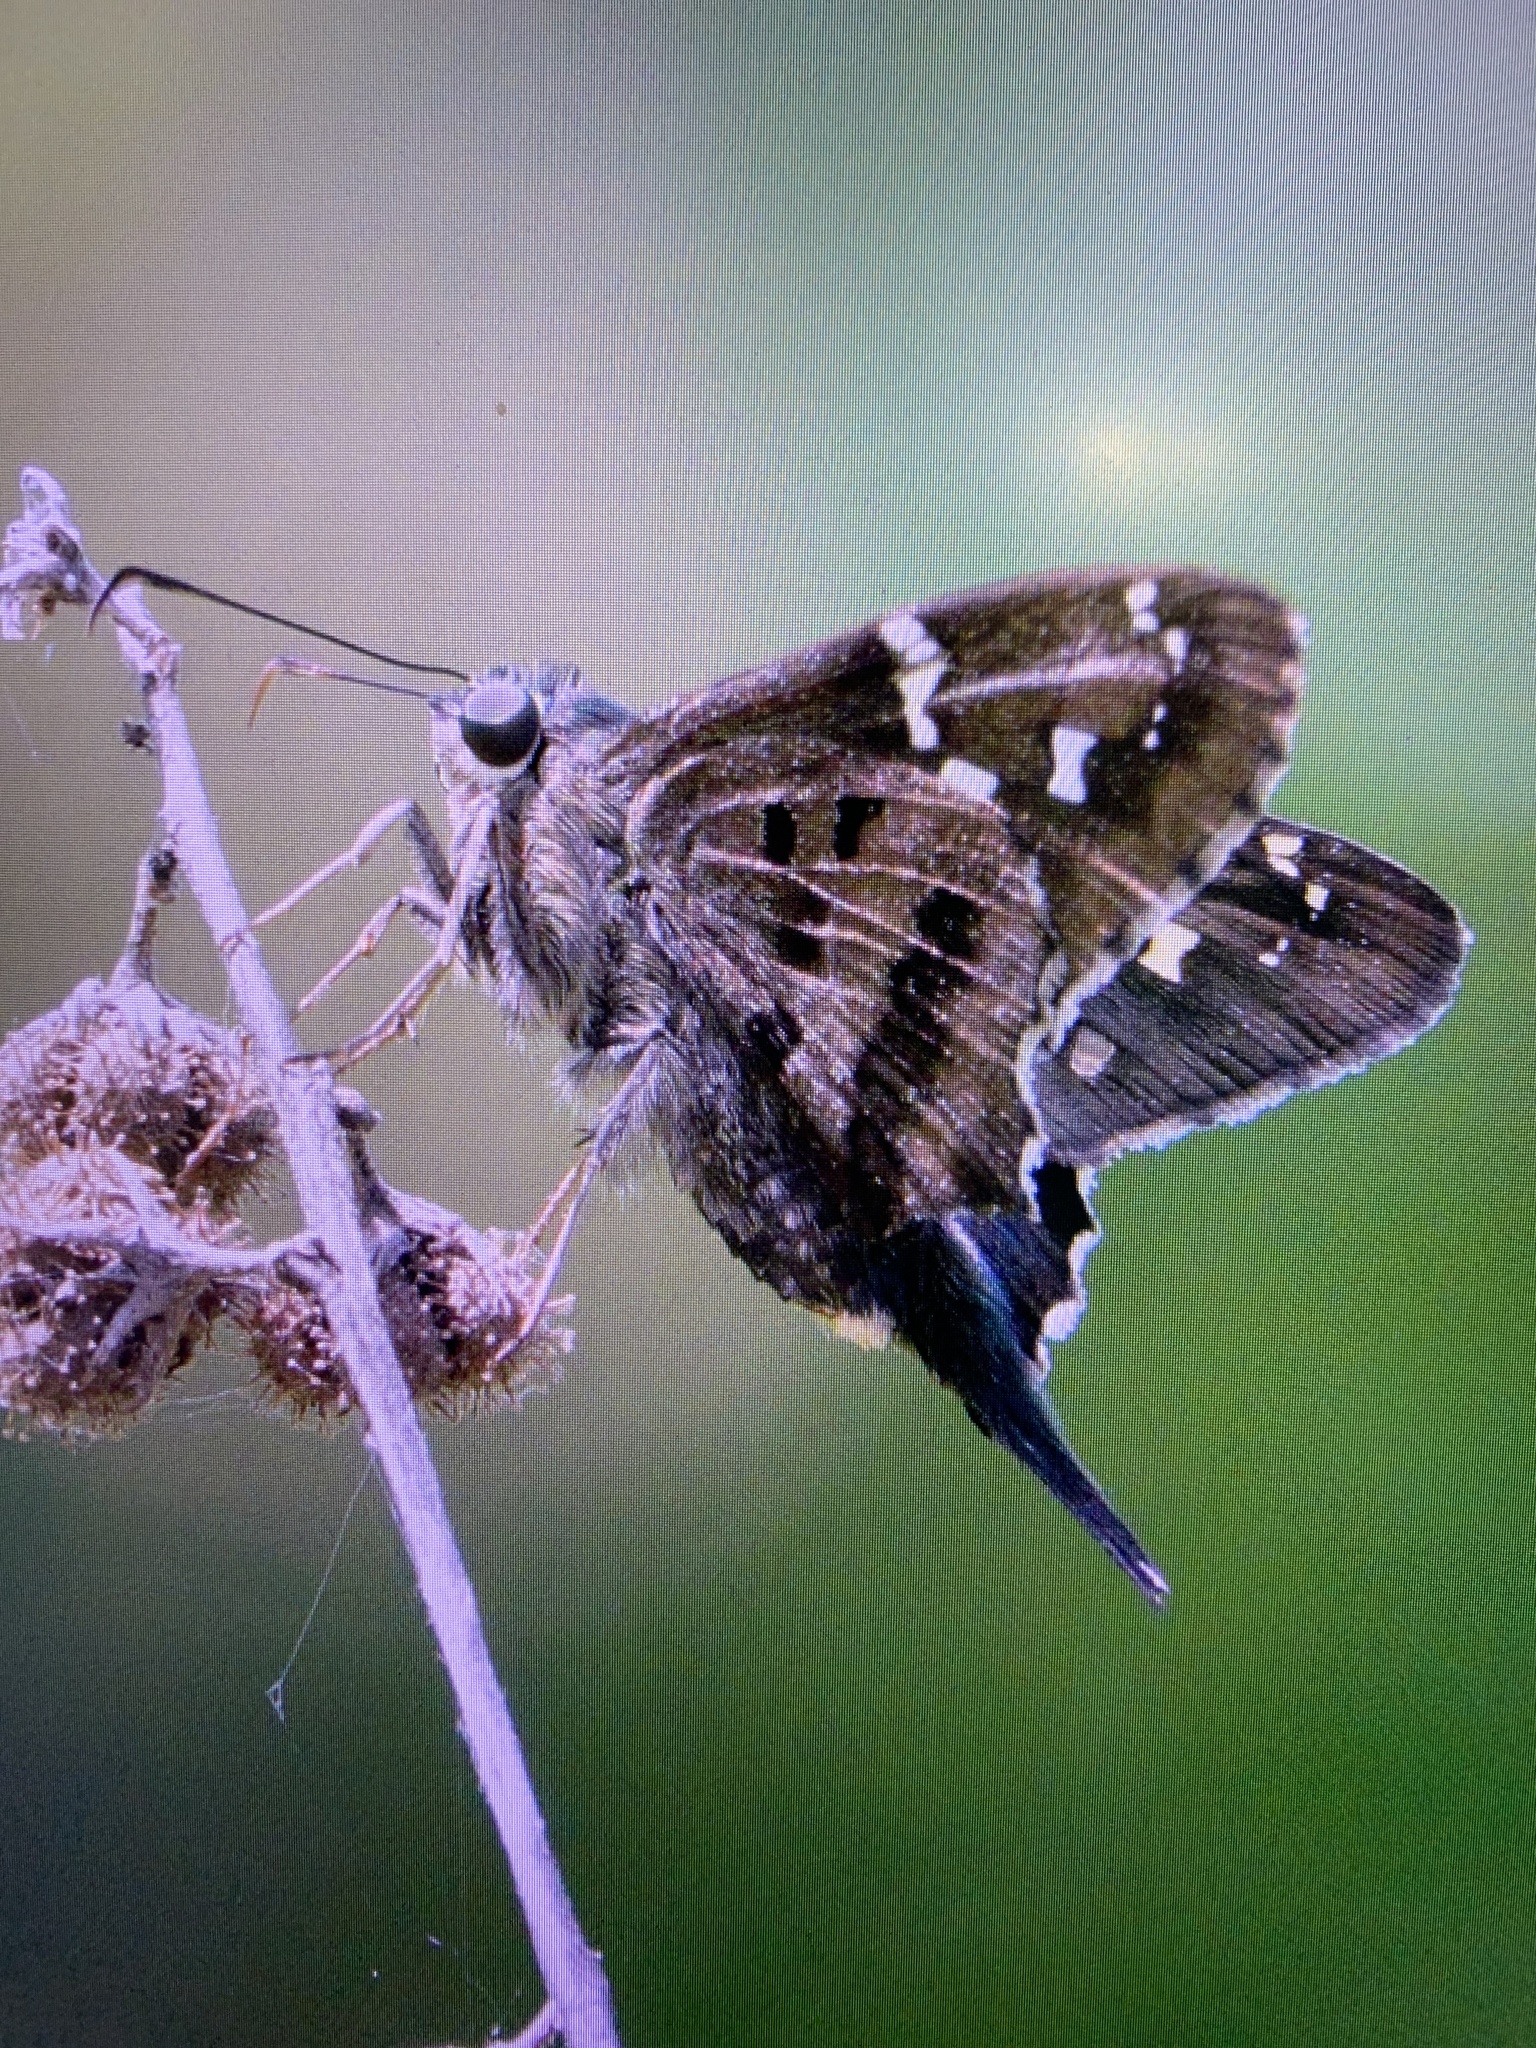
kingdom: Animalia
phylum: Arthropoda
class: Insecta
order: Lepidoptera
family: Hesperiidae
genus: Urbanus
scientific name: Urbanus proteus
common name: Long-tailed skipper
